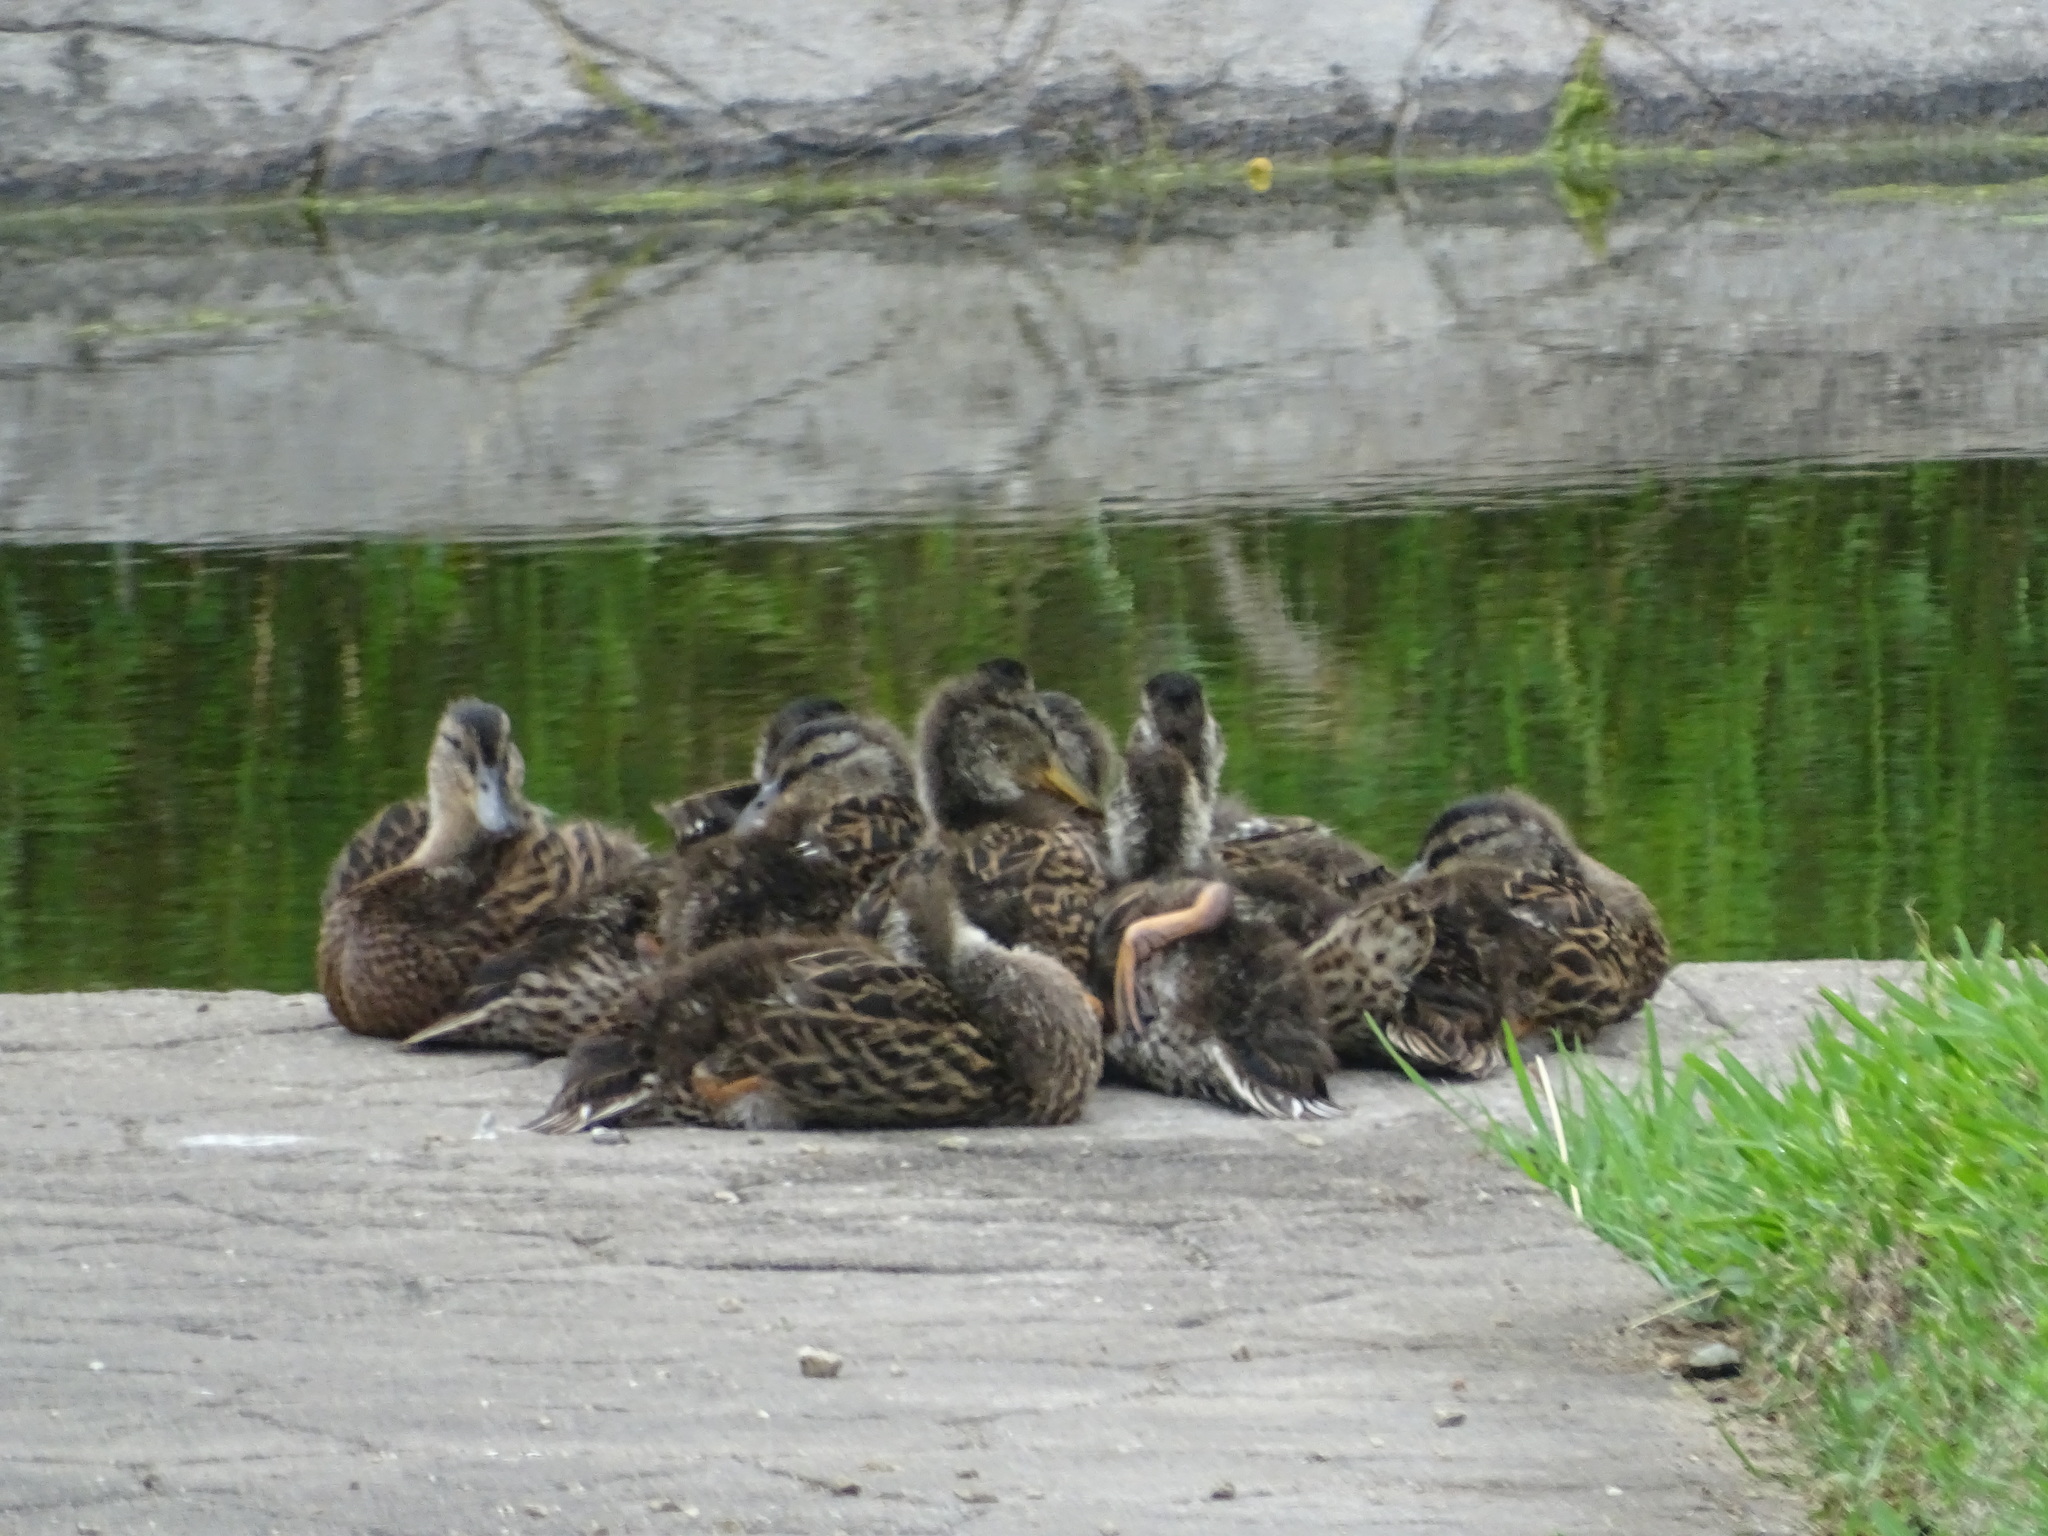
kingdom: Animalia
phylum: Chordata
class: Aves
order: Anseriformes
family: Anatidae
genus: Anas
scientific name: Anas platyrhynchos
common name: Mallard
